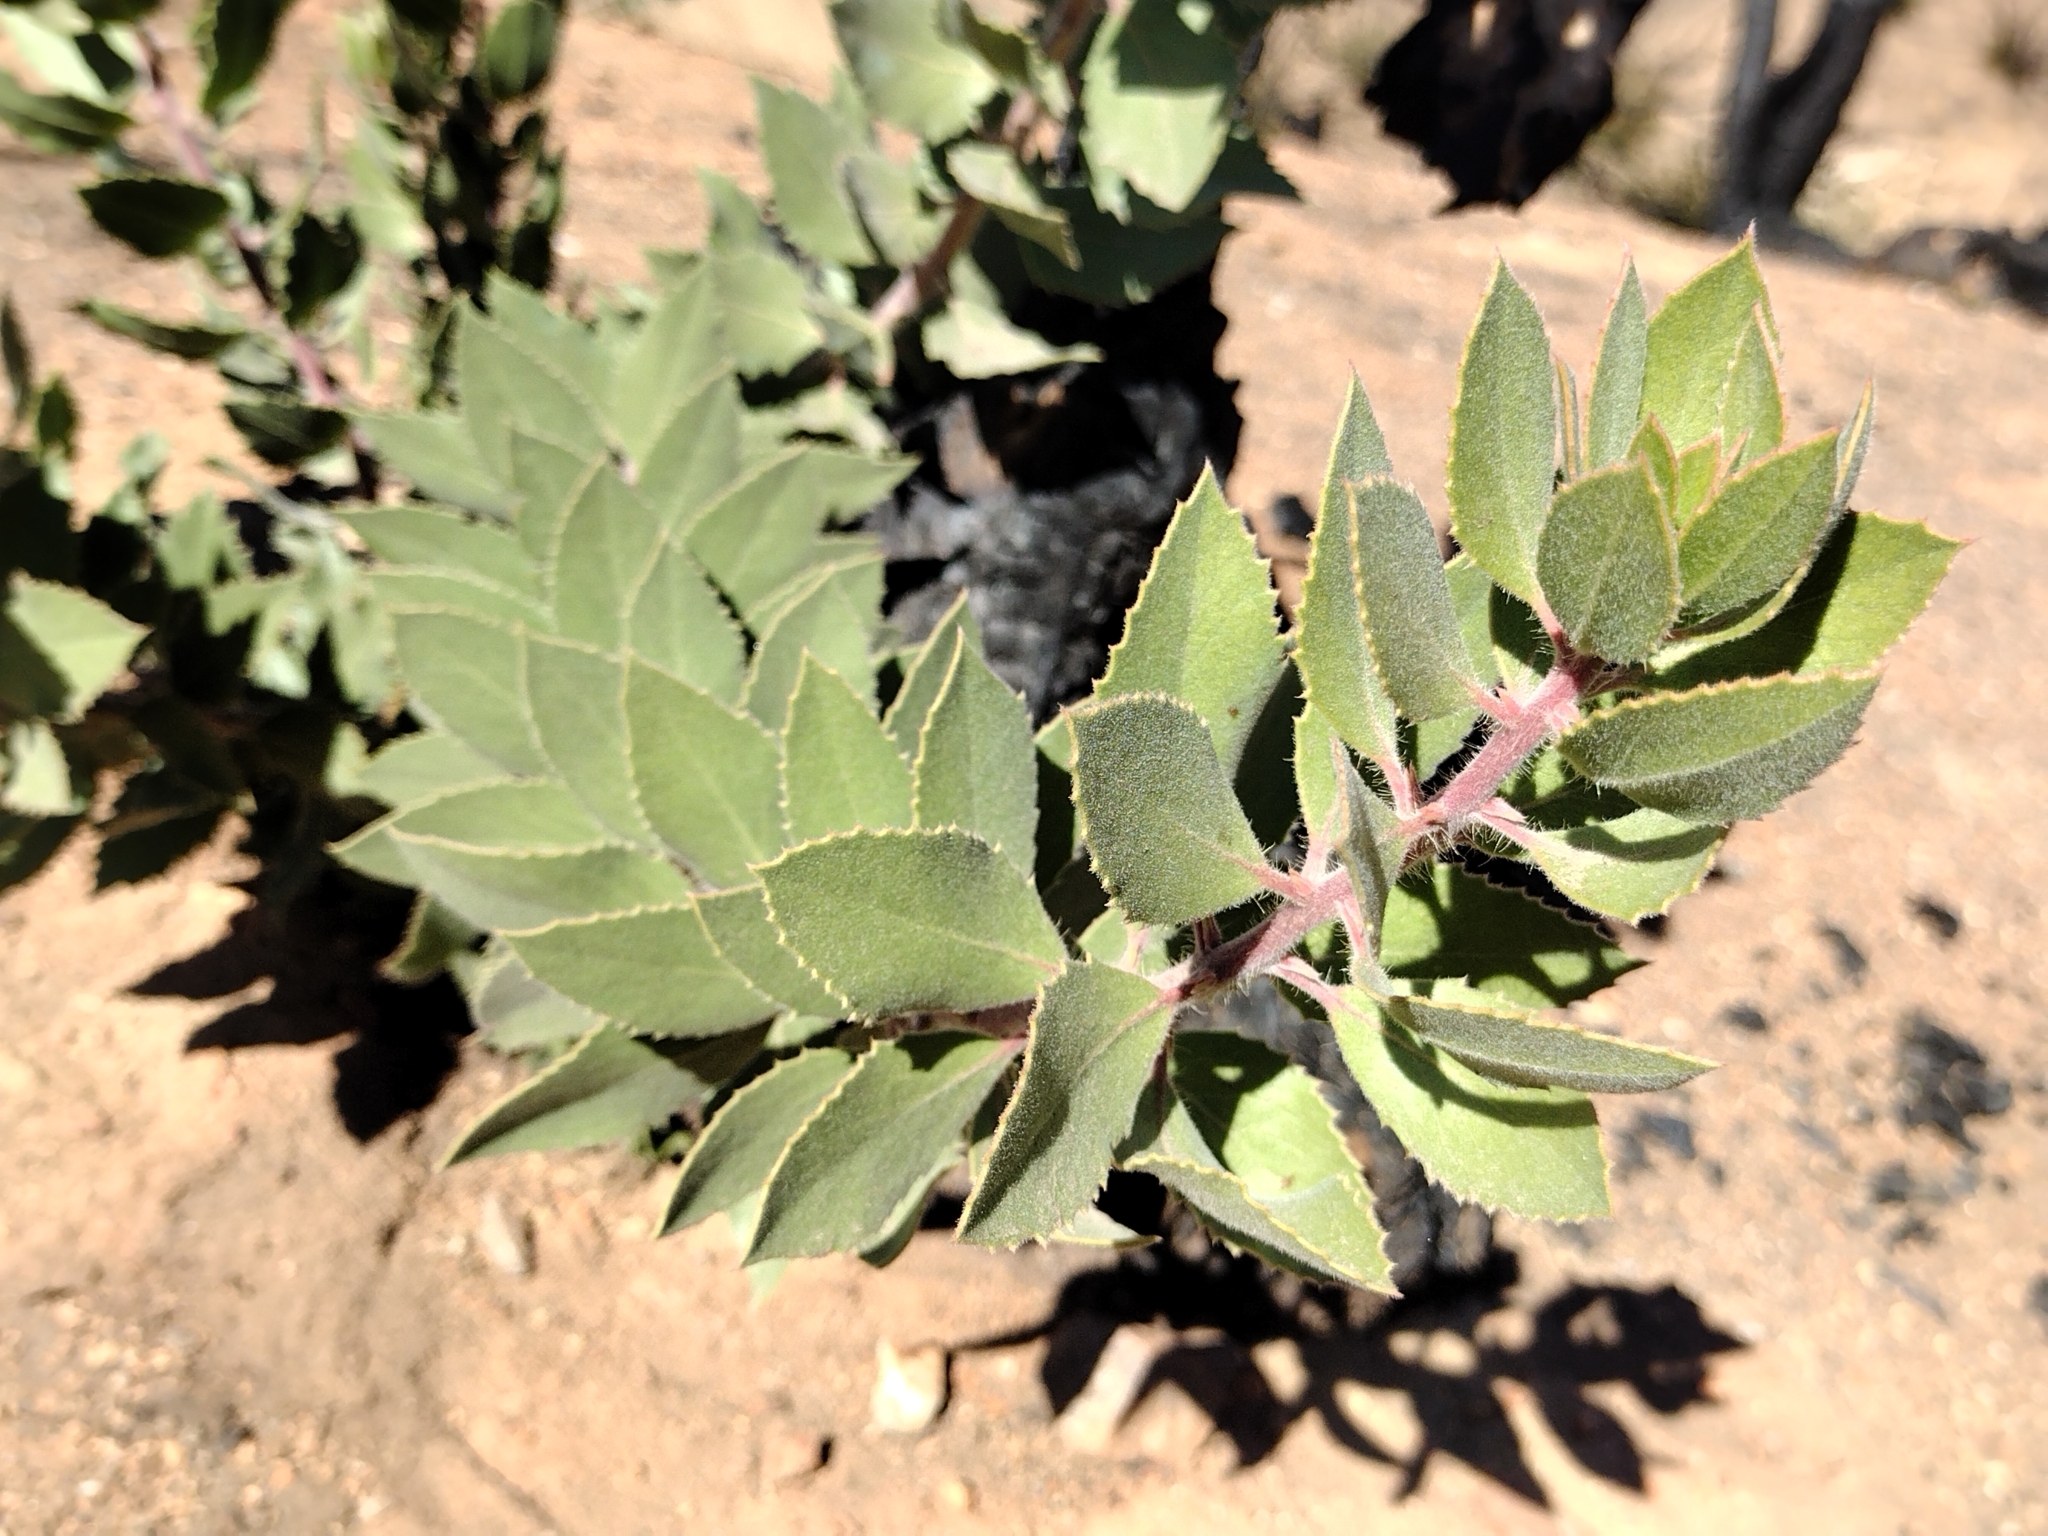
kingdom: Plantae
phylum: Tracheophyta
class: Magnoliopsida
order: Ericales
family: Ericaceae
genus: Arctostaphylos
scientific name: Arctostaphylos glandulosa
